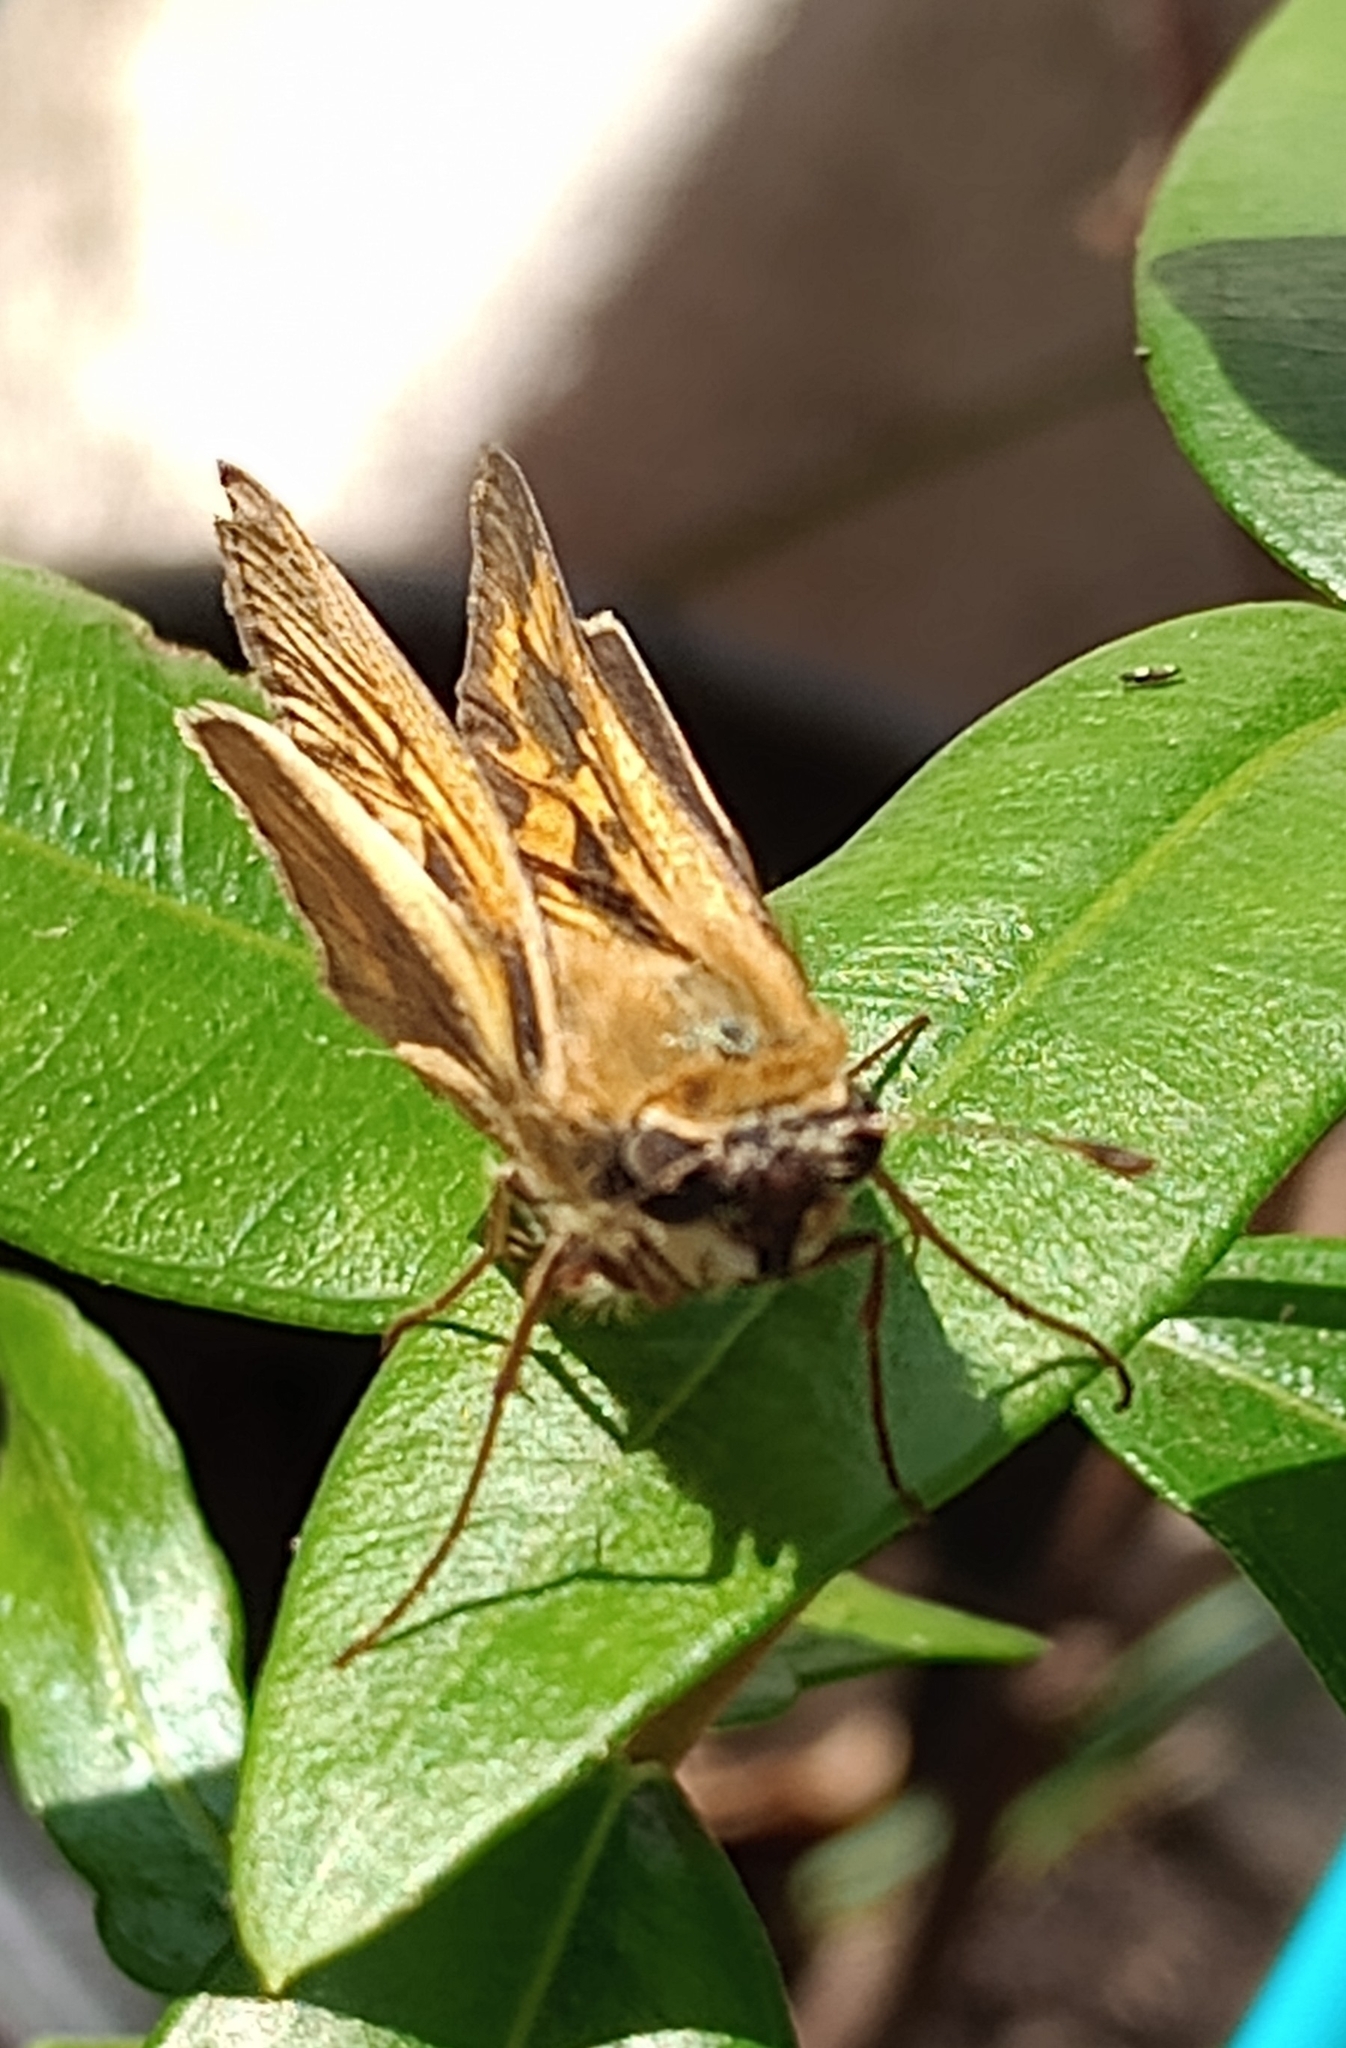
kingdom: Animalia
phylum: Arthropoda
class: Insecta
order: Lepidoptera
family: Hesperiidae
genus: Hylephila
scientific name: Hylephila phyleus
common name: Fiery skipper
